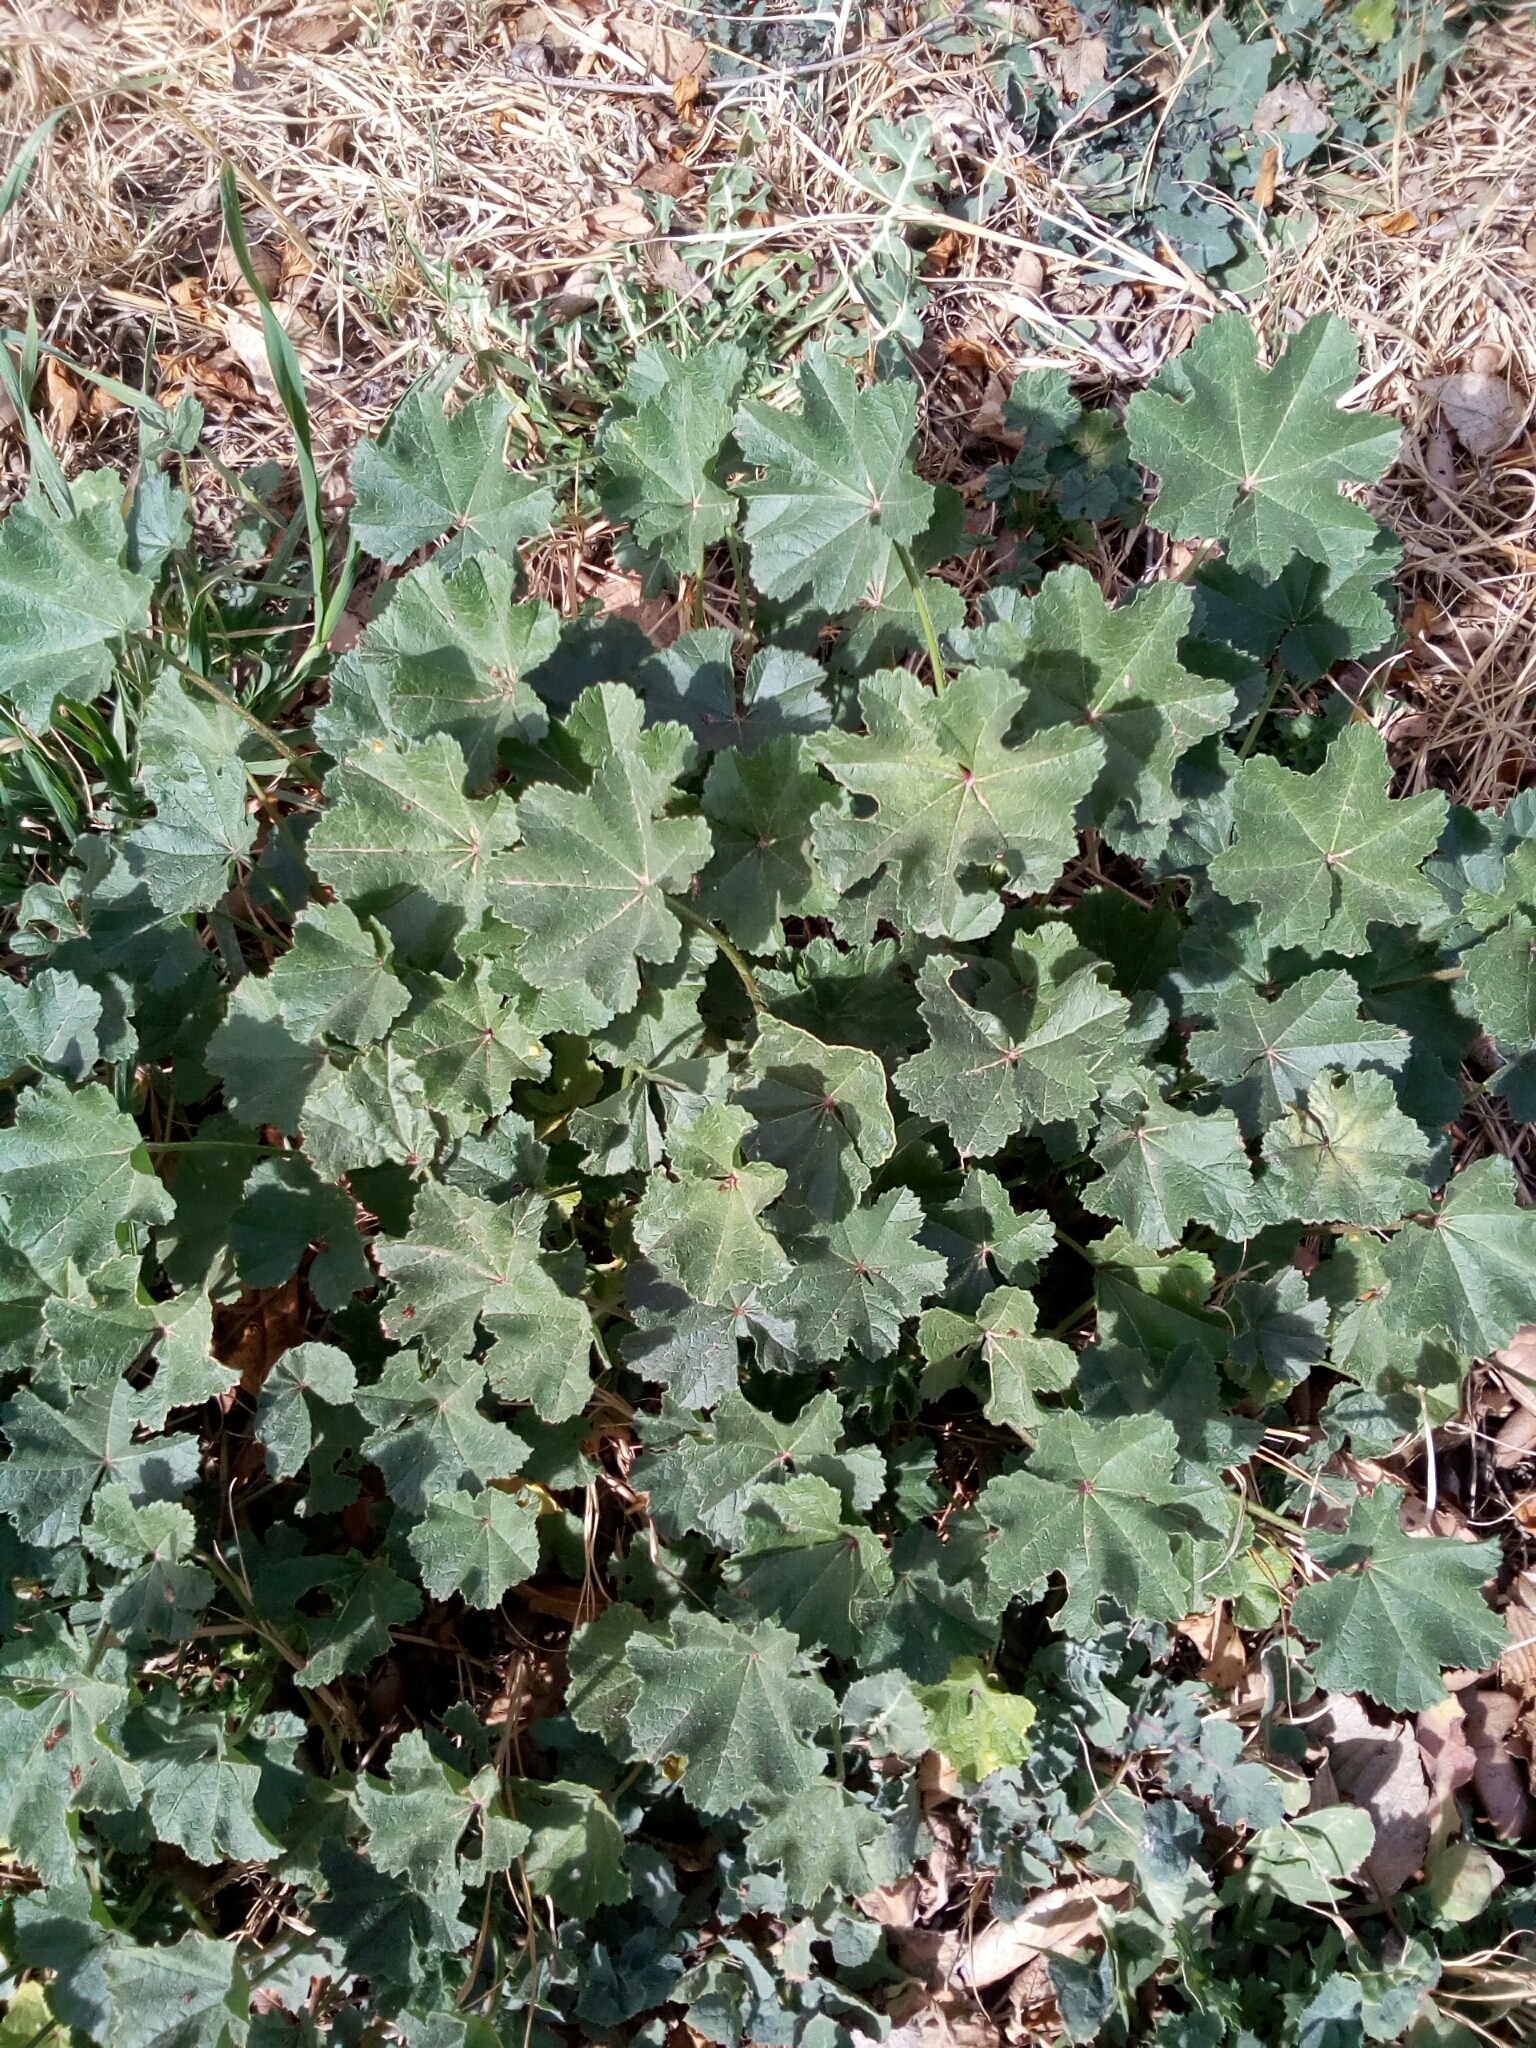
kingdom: Plantae
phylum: Tracheophyta
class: Magnoliopsida
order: Malvales
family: Malvaceae
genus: Malva
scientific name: Malva parviflora
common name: Least mallow
